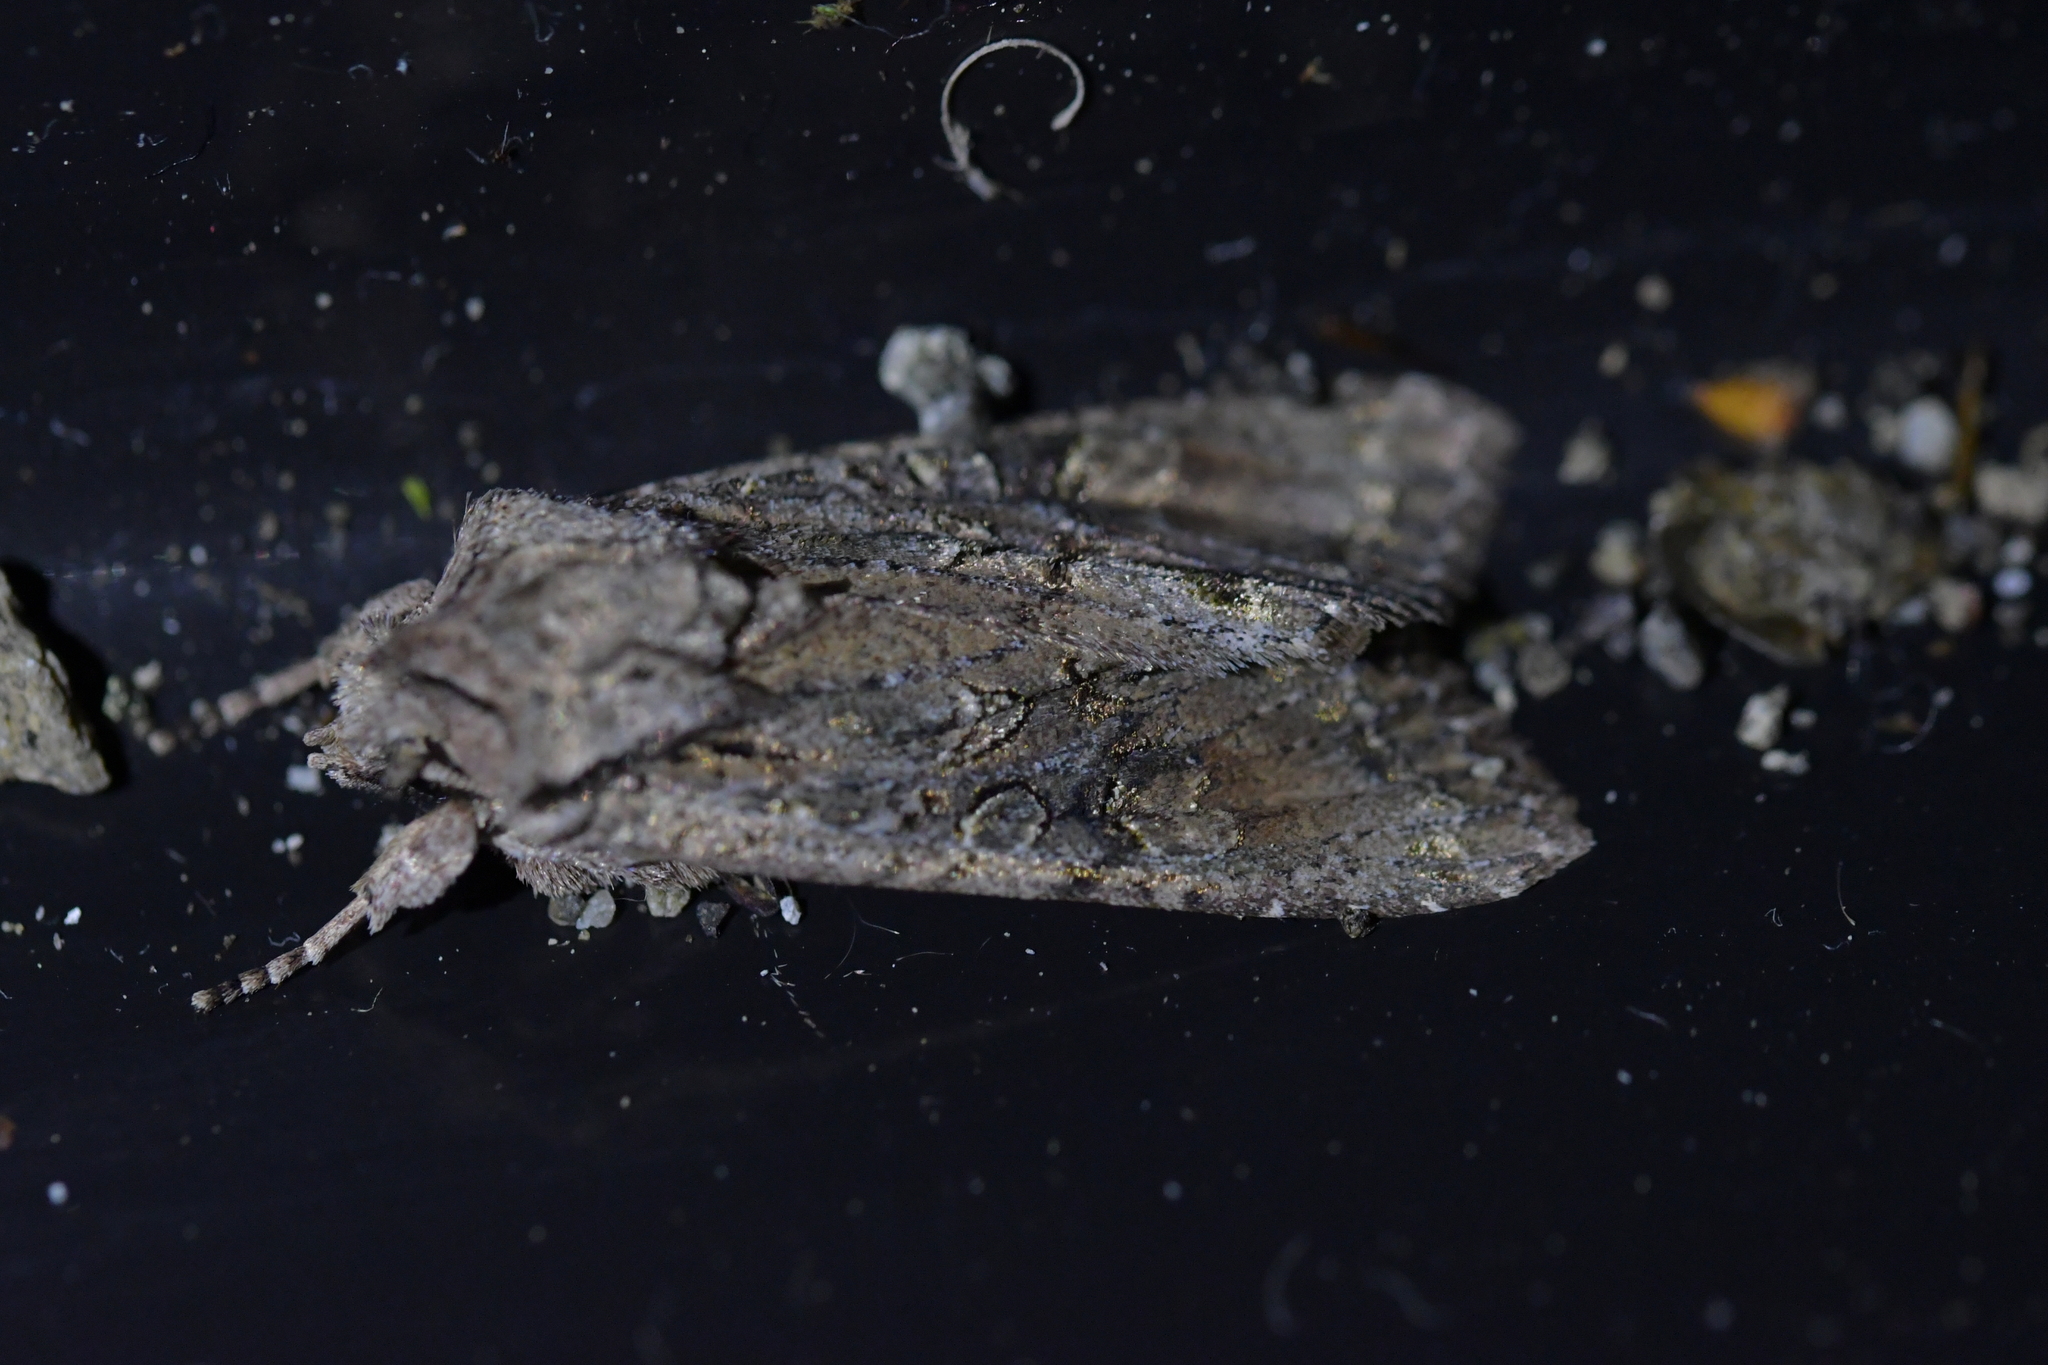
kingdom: Animalia
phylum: Arthropoda
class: Insecta
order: Lepidoptera
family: Noctuidae
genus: Ichneutica
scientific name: Ichneutica mutans
